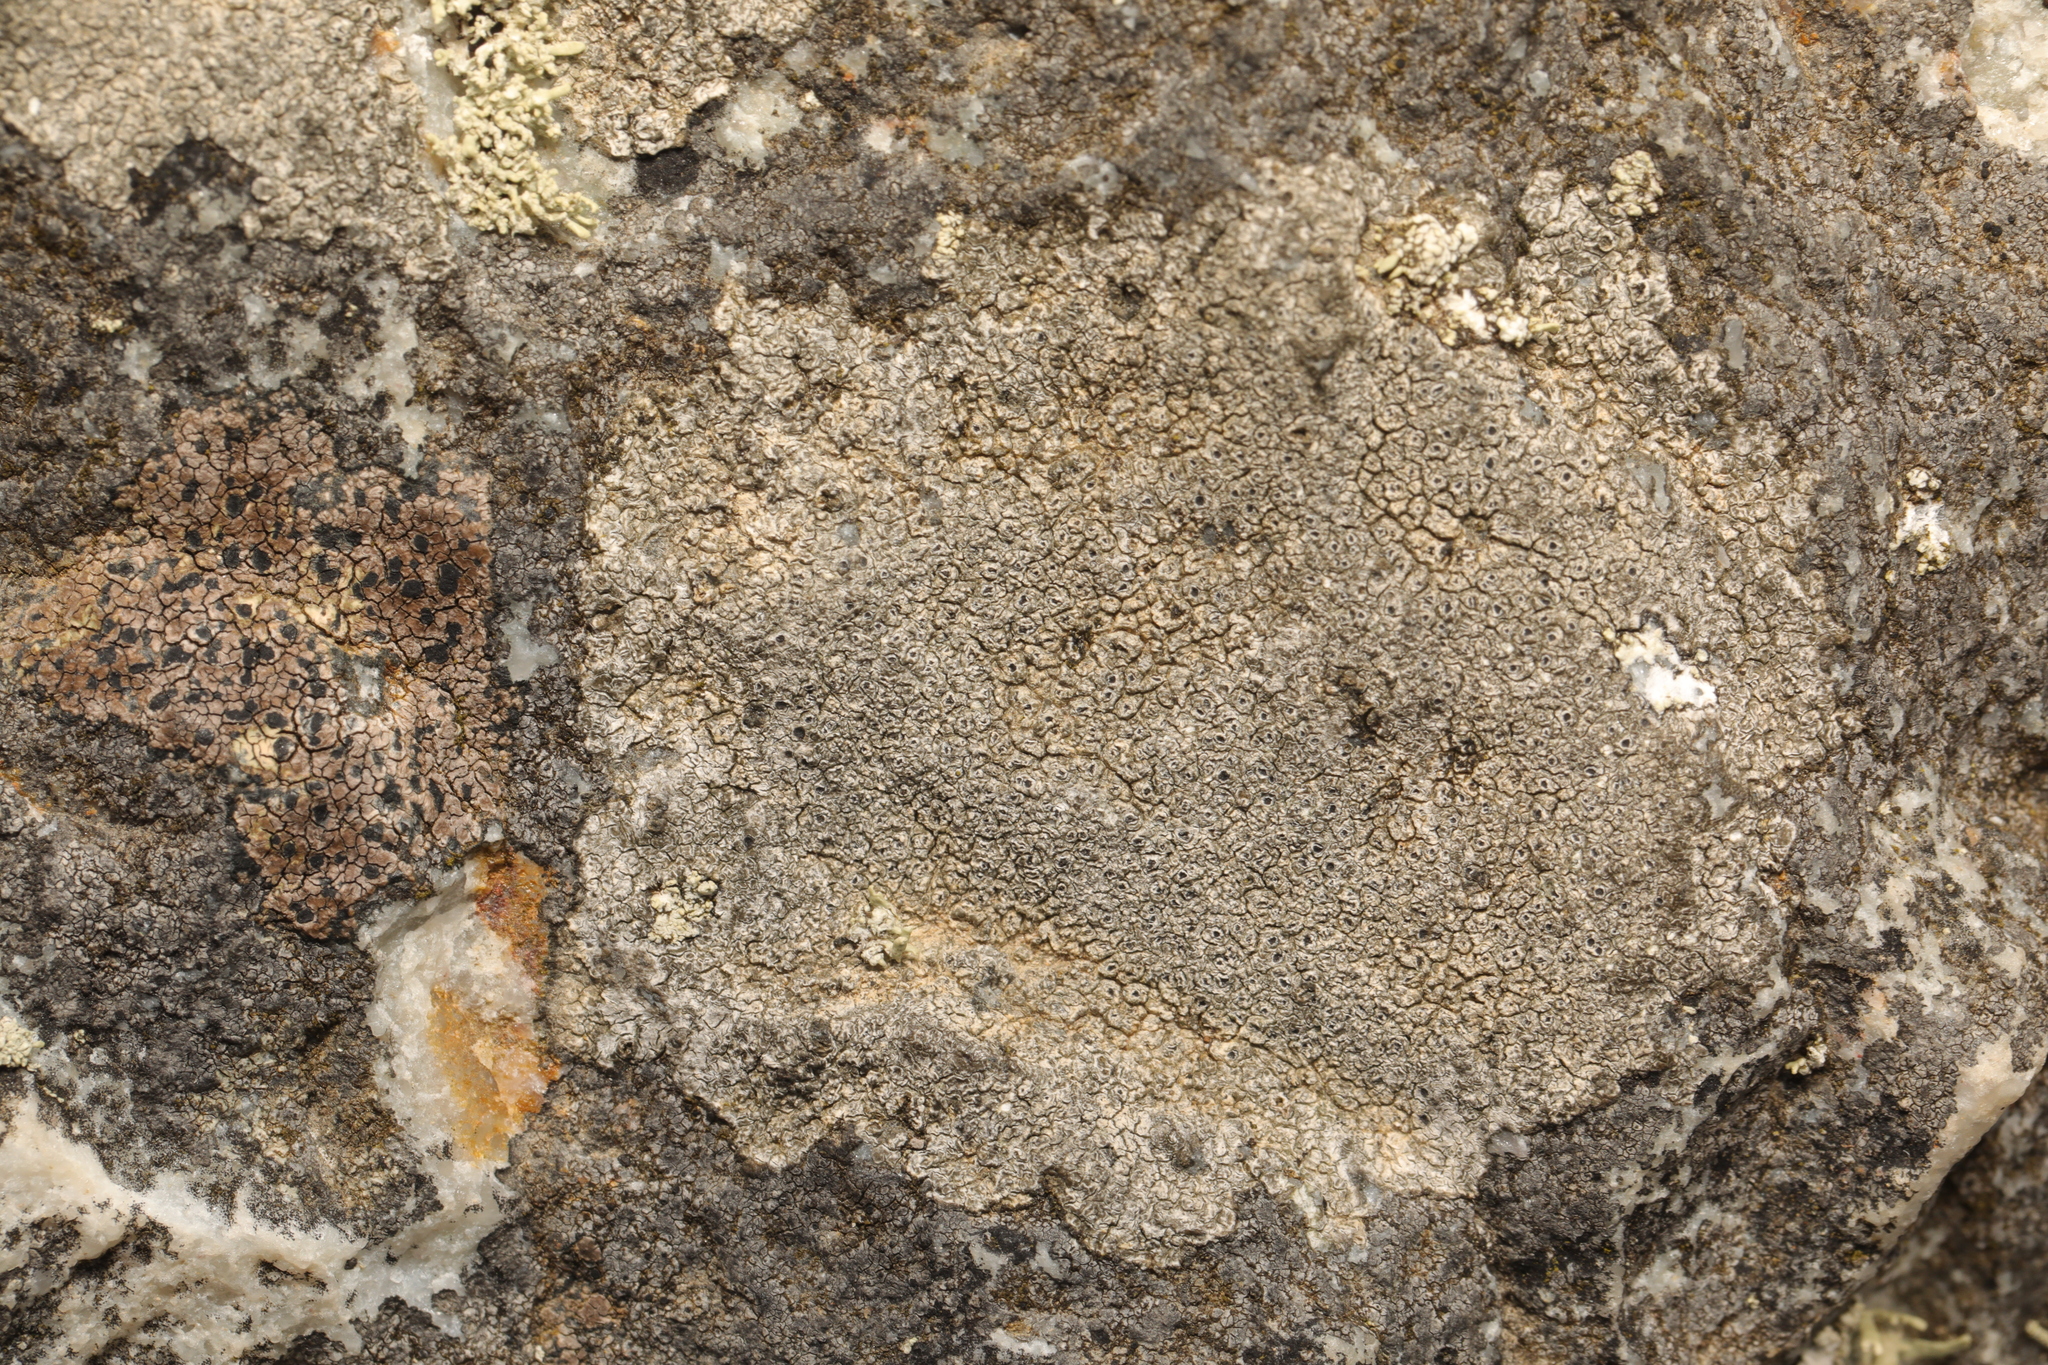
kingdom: Fungi
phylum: Ascomycota
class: Lecanoromycetes
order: Pertusariales
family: Megasporaceae
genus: Circinaria
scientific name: Circinaria caesiocinerea
